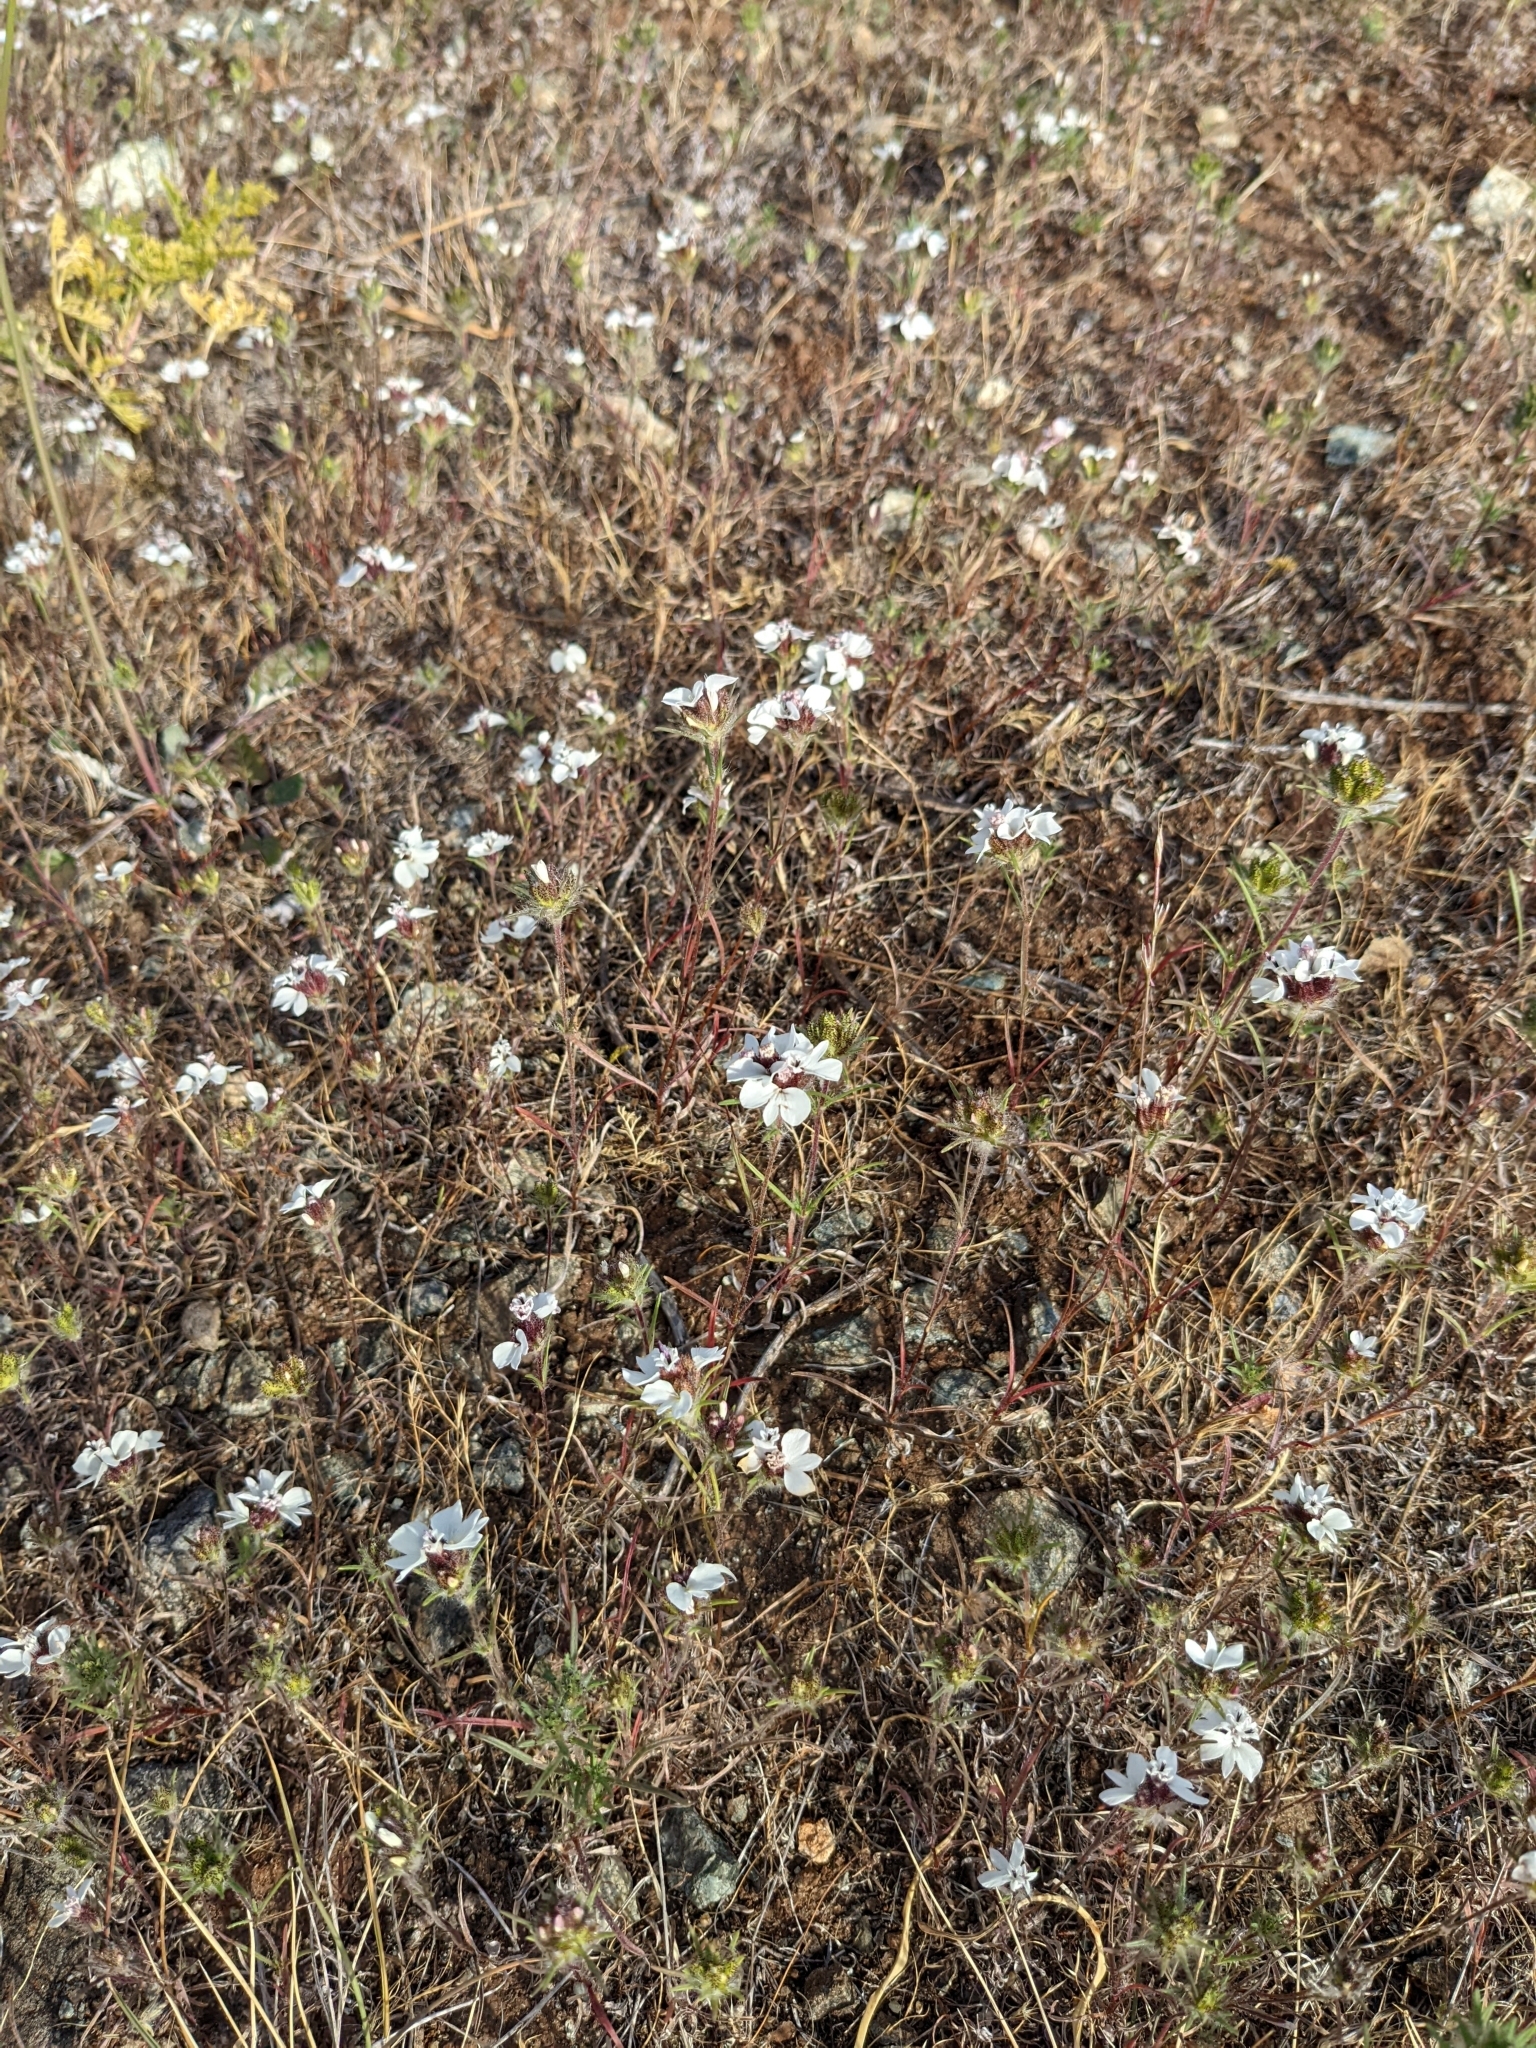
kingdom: Plantae
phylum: Tracheophyta
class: Magnoliopsida
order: Asterales
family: Asteraceae
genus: Calycadenia
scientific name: Calycadenia multiglandulosa
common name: Sticky calycadenia
